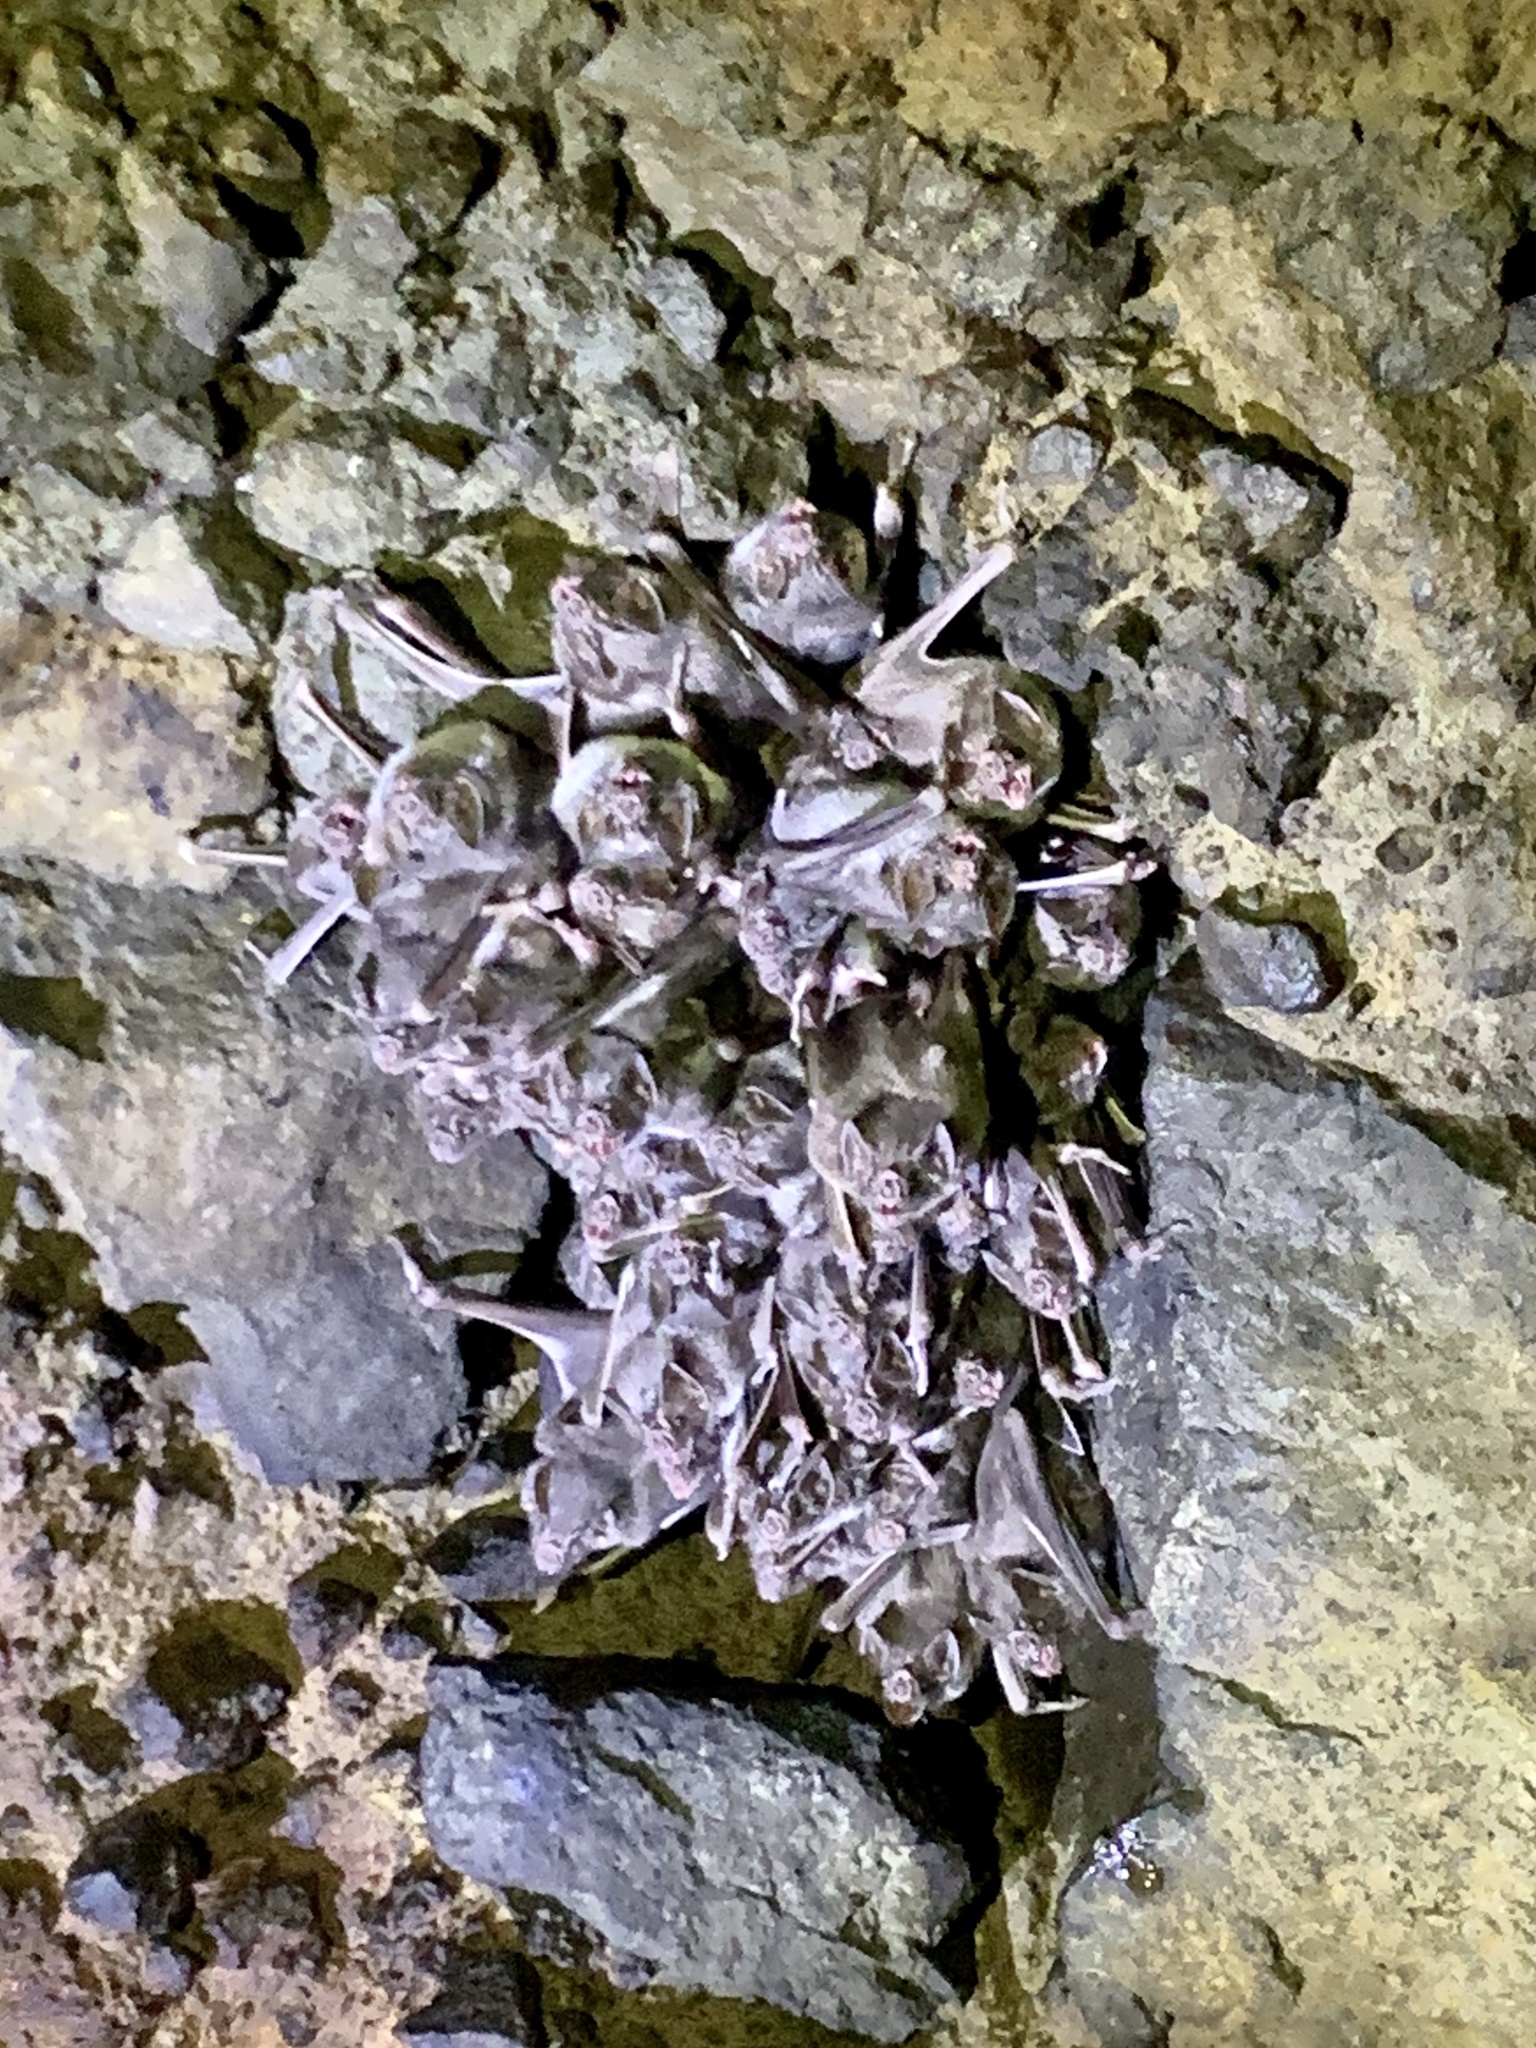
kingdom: Animalia
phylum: Chordata
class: Mammalia
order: Chiroptera
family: Phyllostomidae
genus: Desmodus
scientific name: Desmodus rotundus
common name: Common vampire bat
